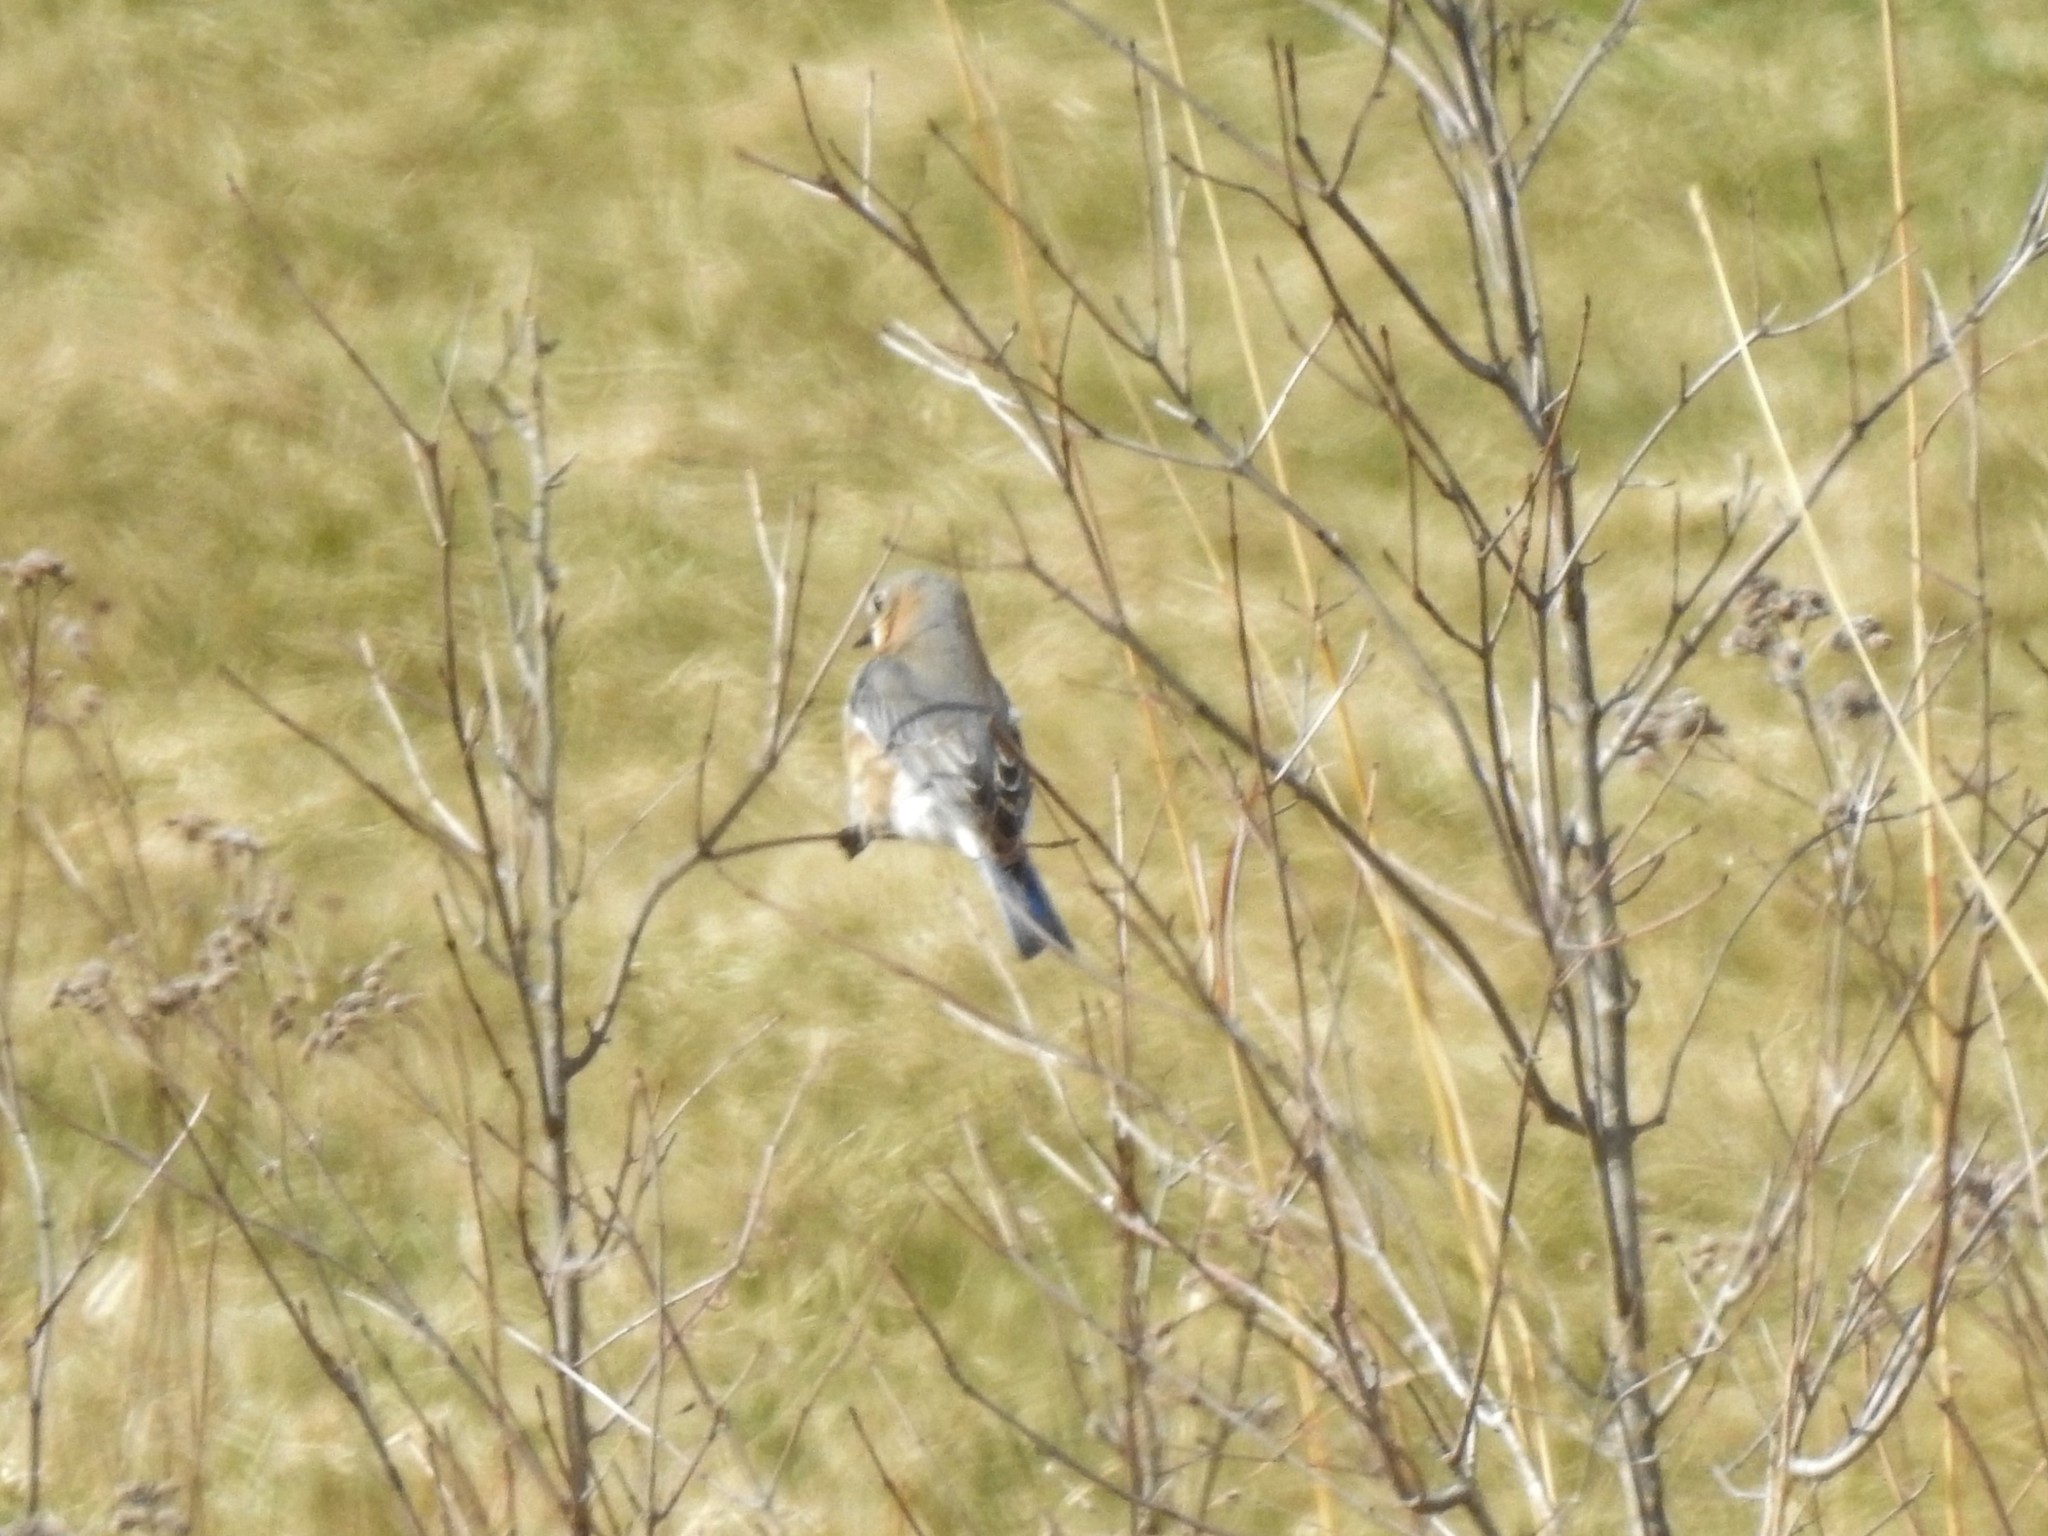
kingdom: Animalia
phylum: Chordata
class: Aves
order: Passeriformes
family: Turdidae
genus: Sialia
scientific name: Sialia sialis
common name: Eastern bluebird
